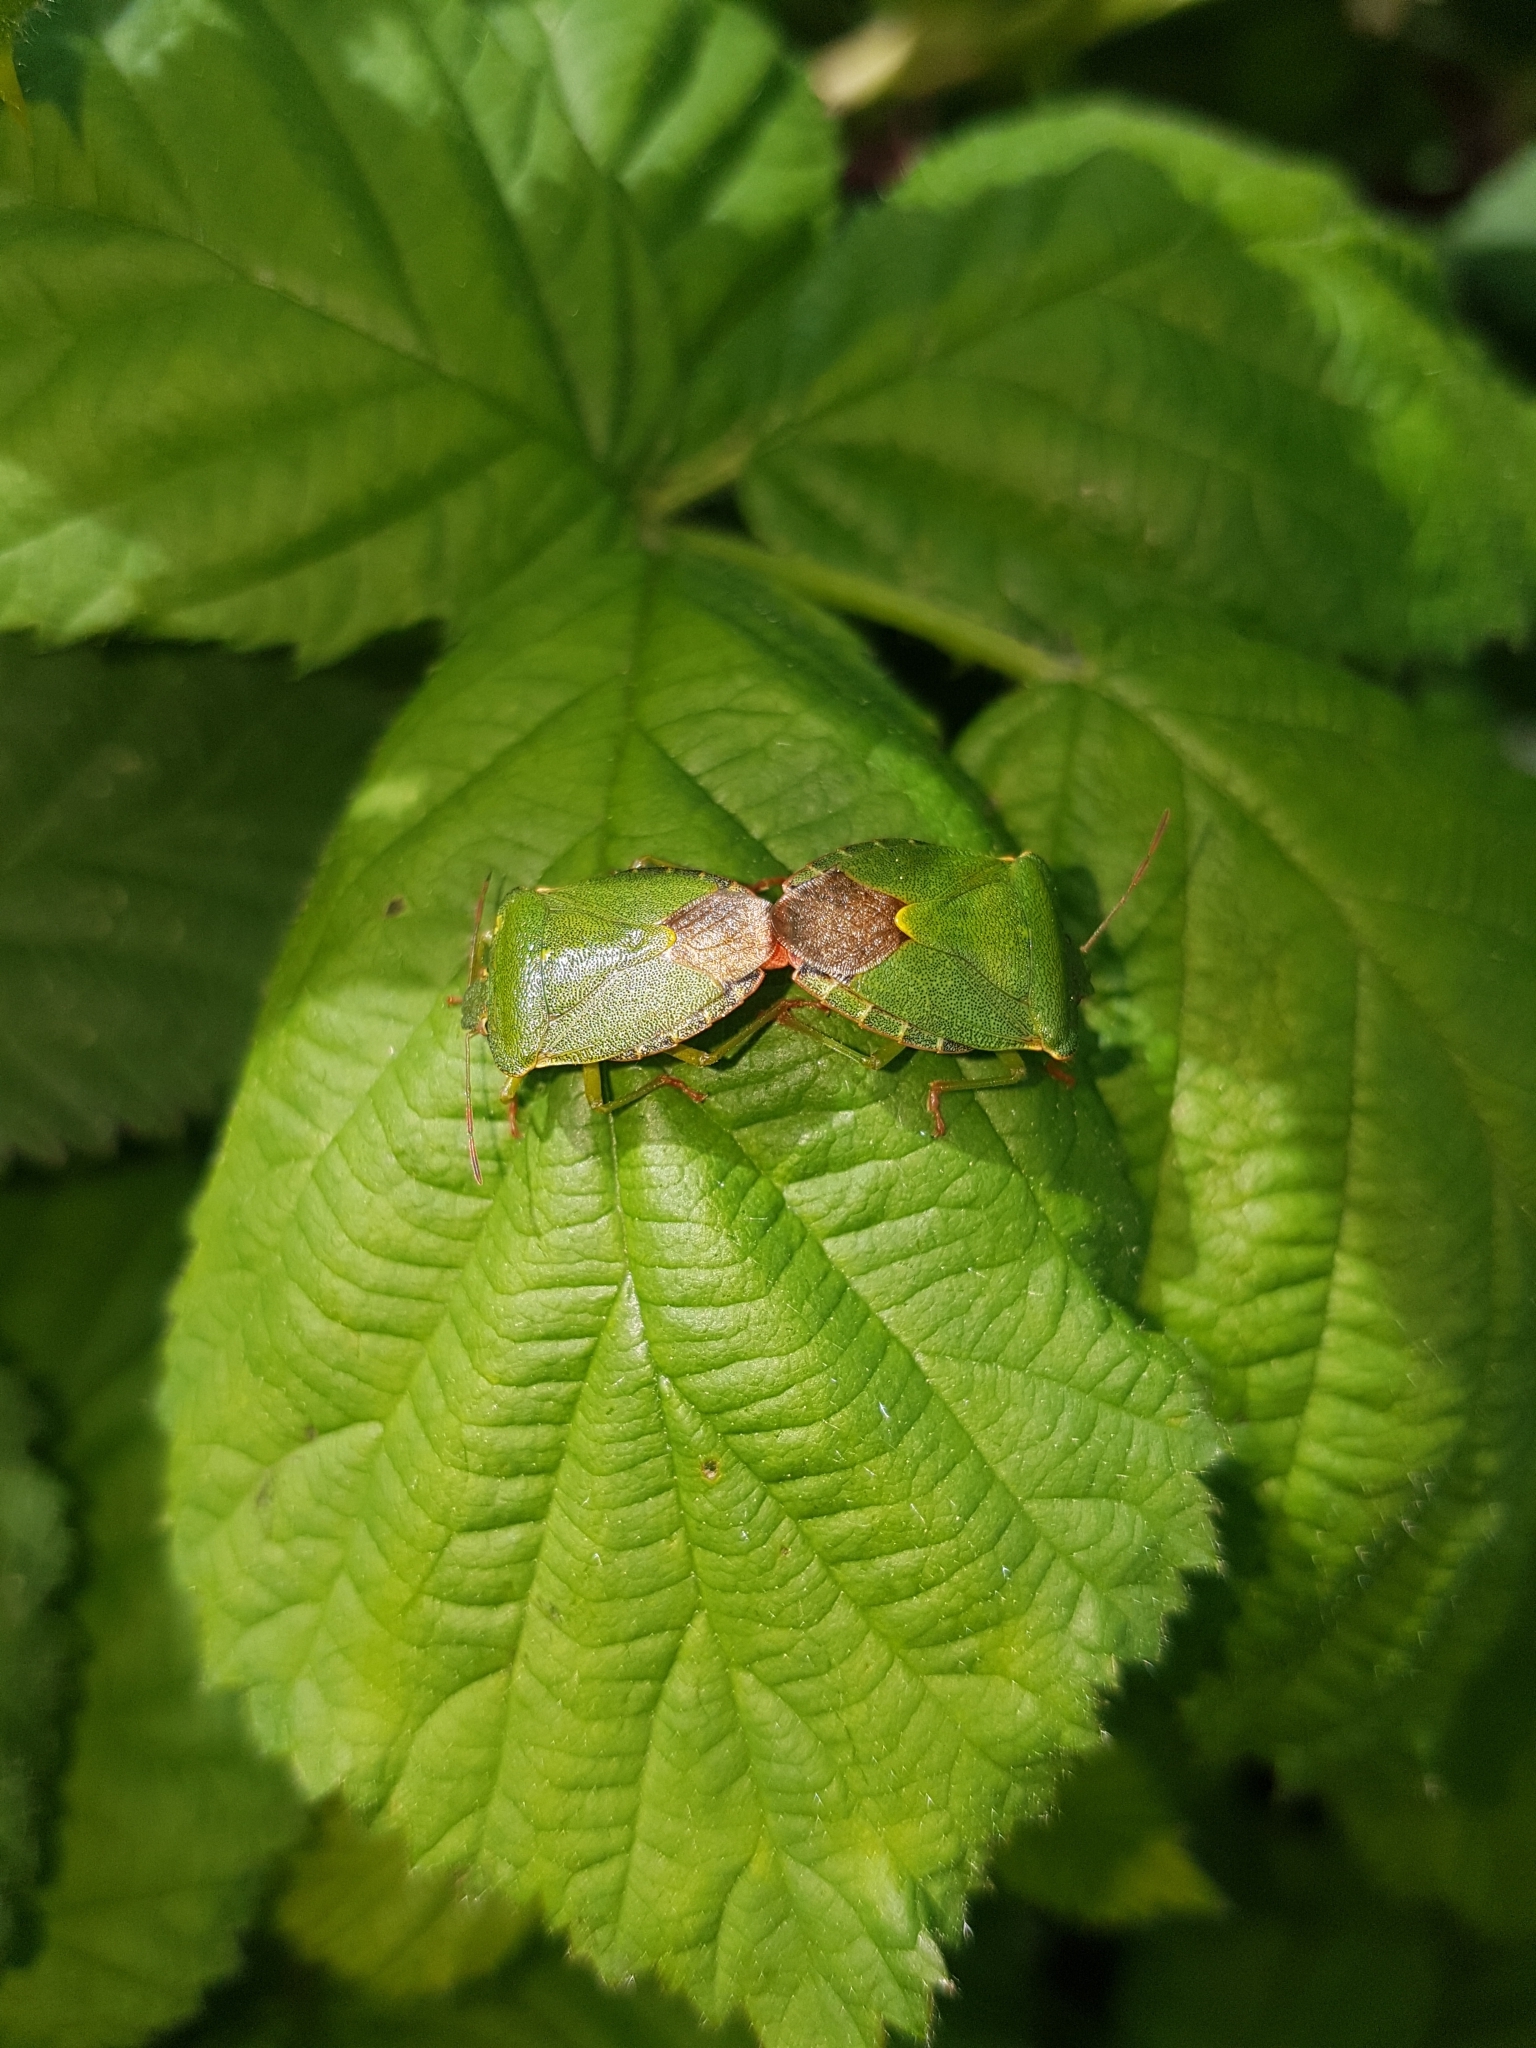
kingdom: Animalia
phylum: Arthropoda
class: Insecta
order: Hemiptera
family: Pentatomidae
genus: Palomena
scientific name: Palomena prasina
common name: Green shieldbug
